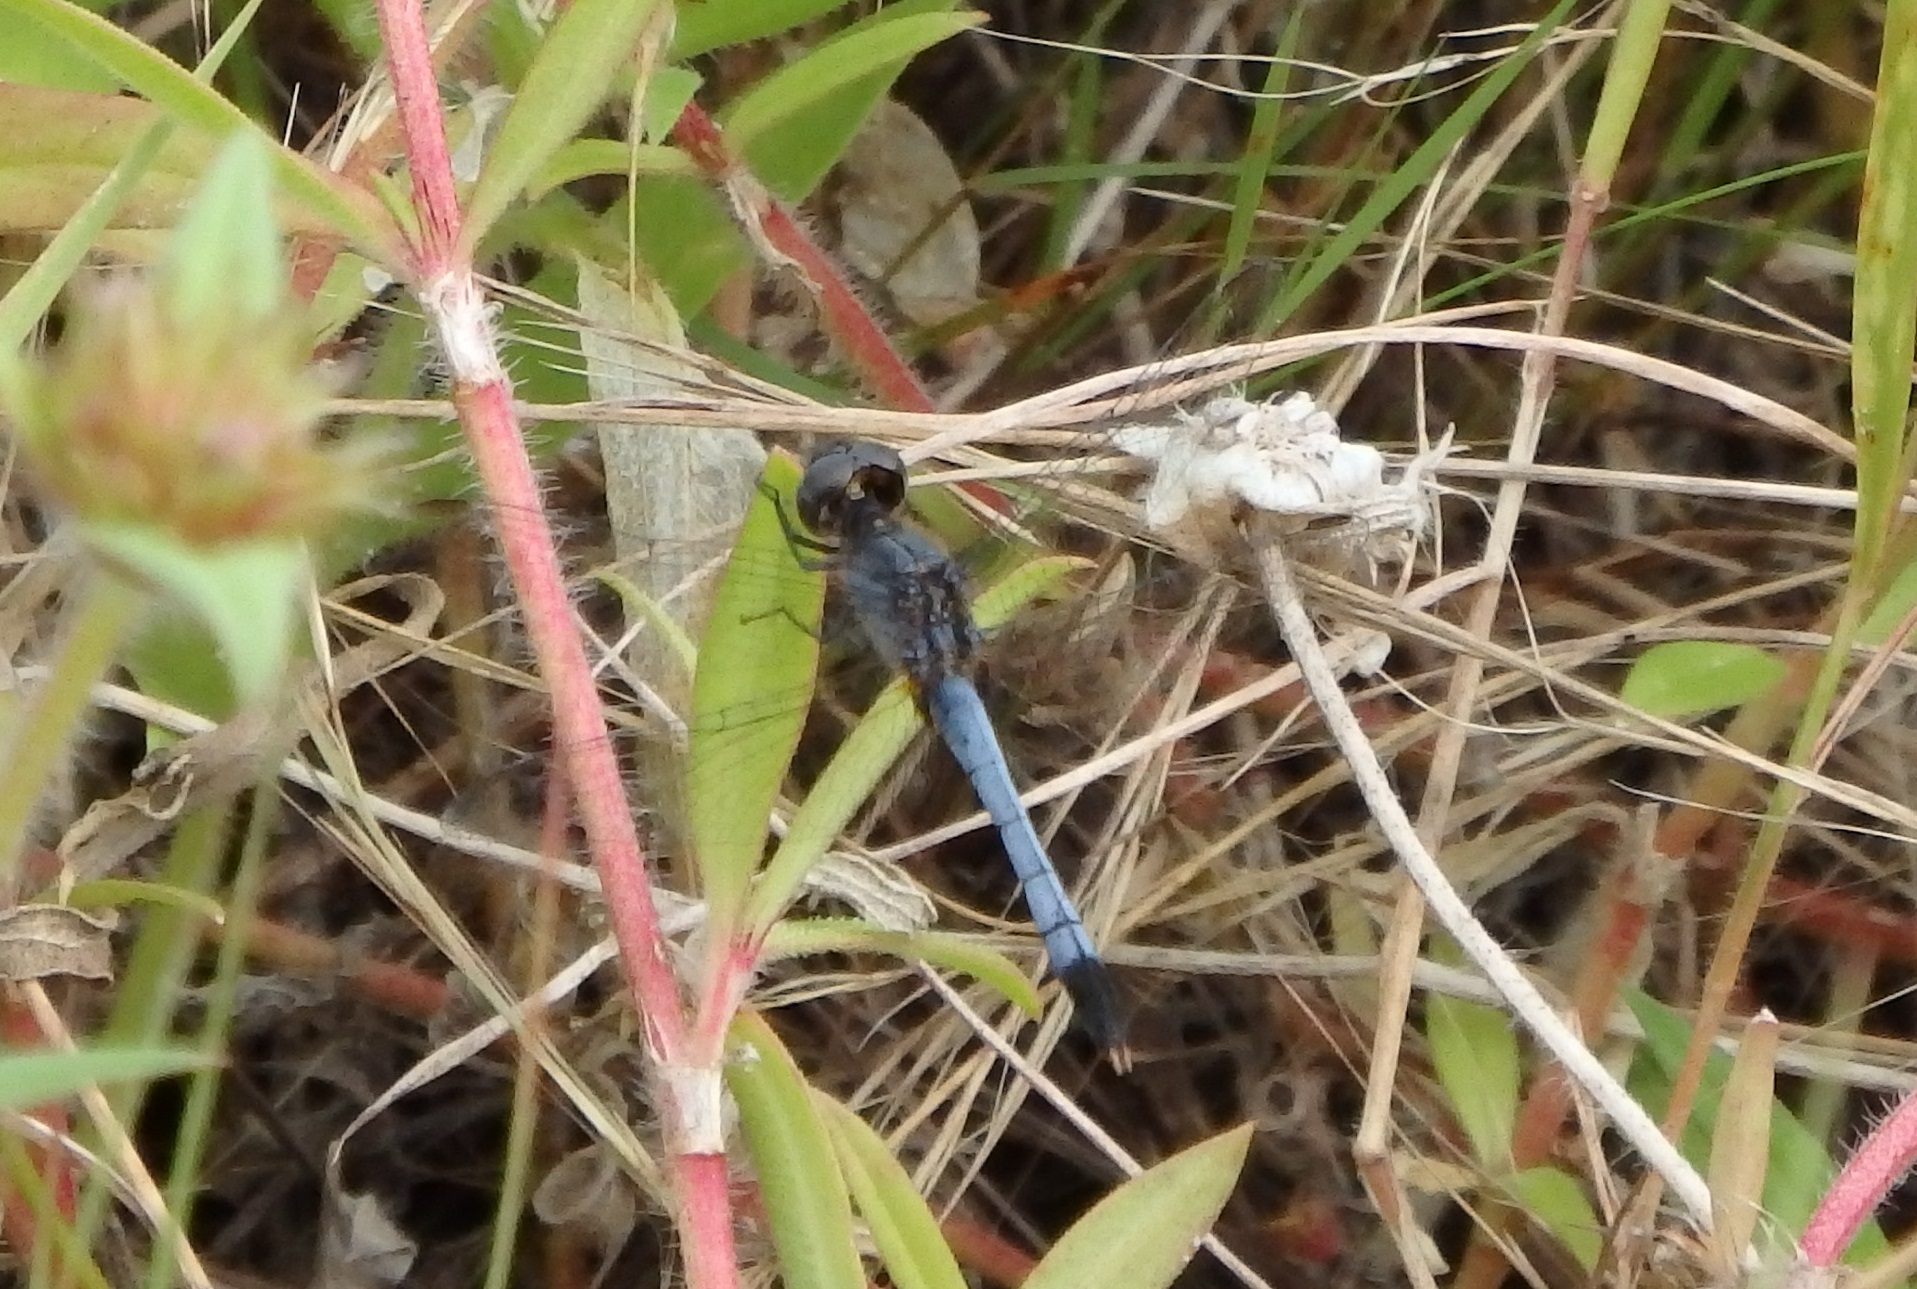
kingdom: Animalia
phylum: Arthropoda
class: Insecta
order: Odonata
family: Libellulidae
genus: Erythrodiplax
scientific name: Erythrodiplax minuscula
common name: Little blue dragonlet
